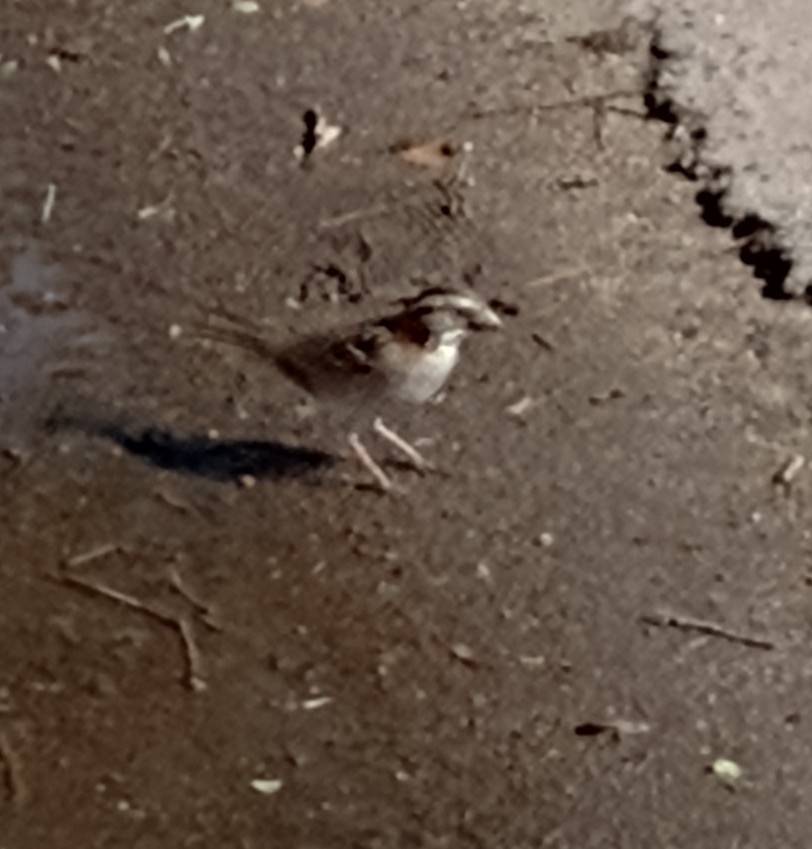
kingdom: Animalia
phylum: Chordata
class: Aves
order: Passeriformes
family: Passerellidae
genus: Zonotrichia
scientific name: Zonotrichia capensis
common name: Rufous-collared sparrow
